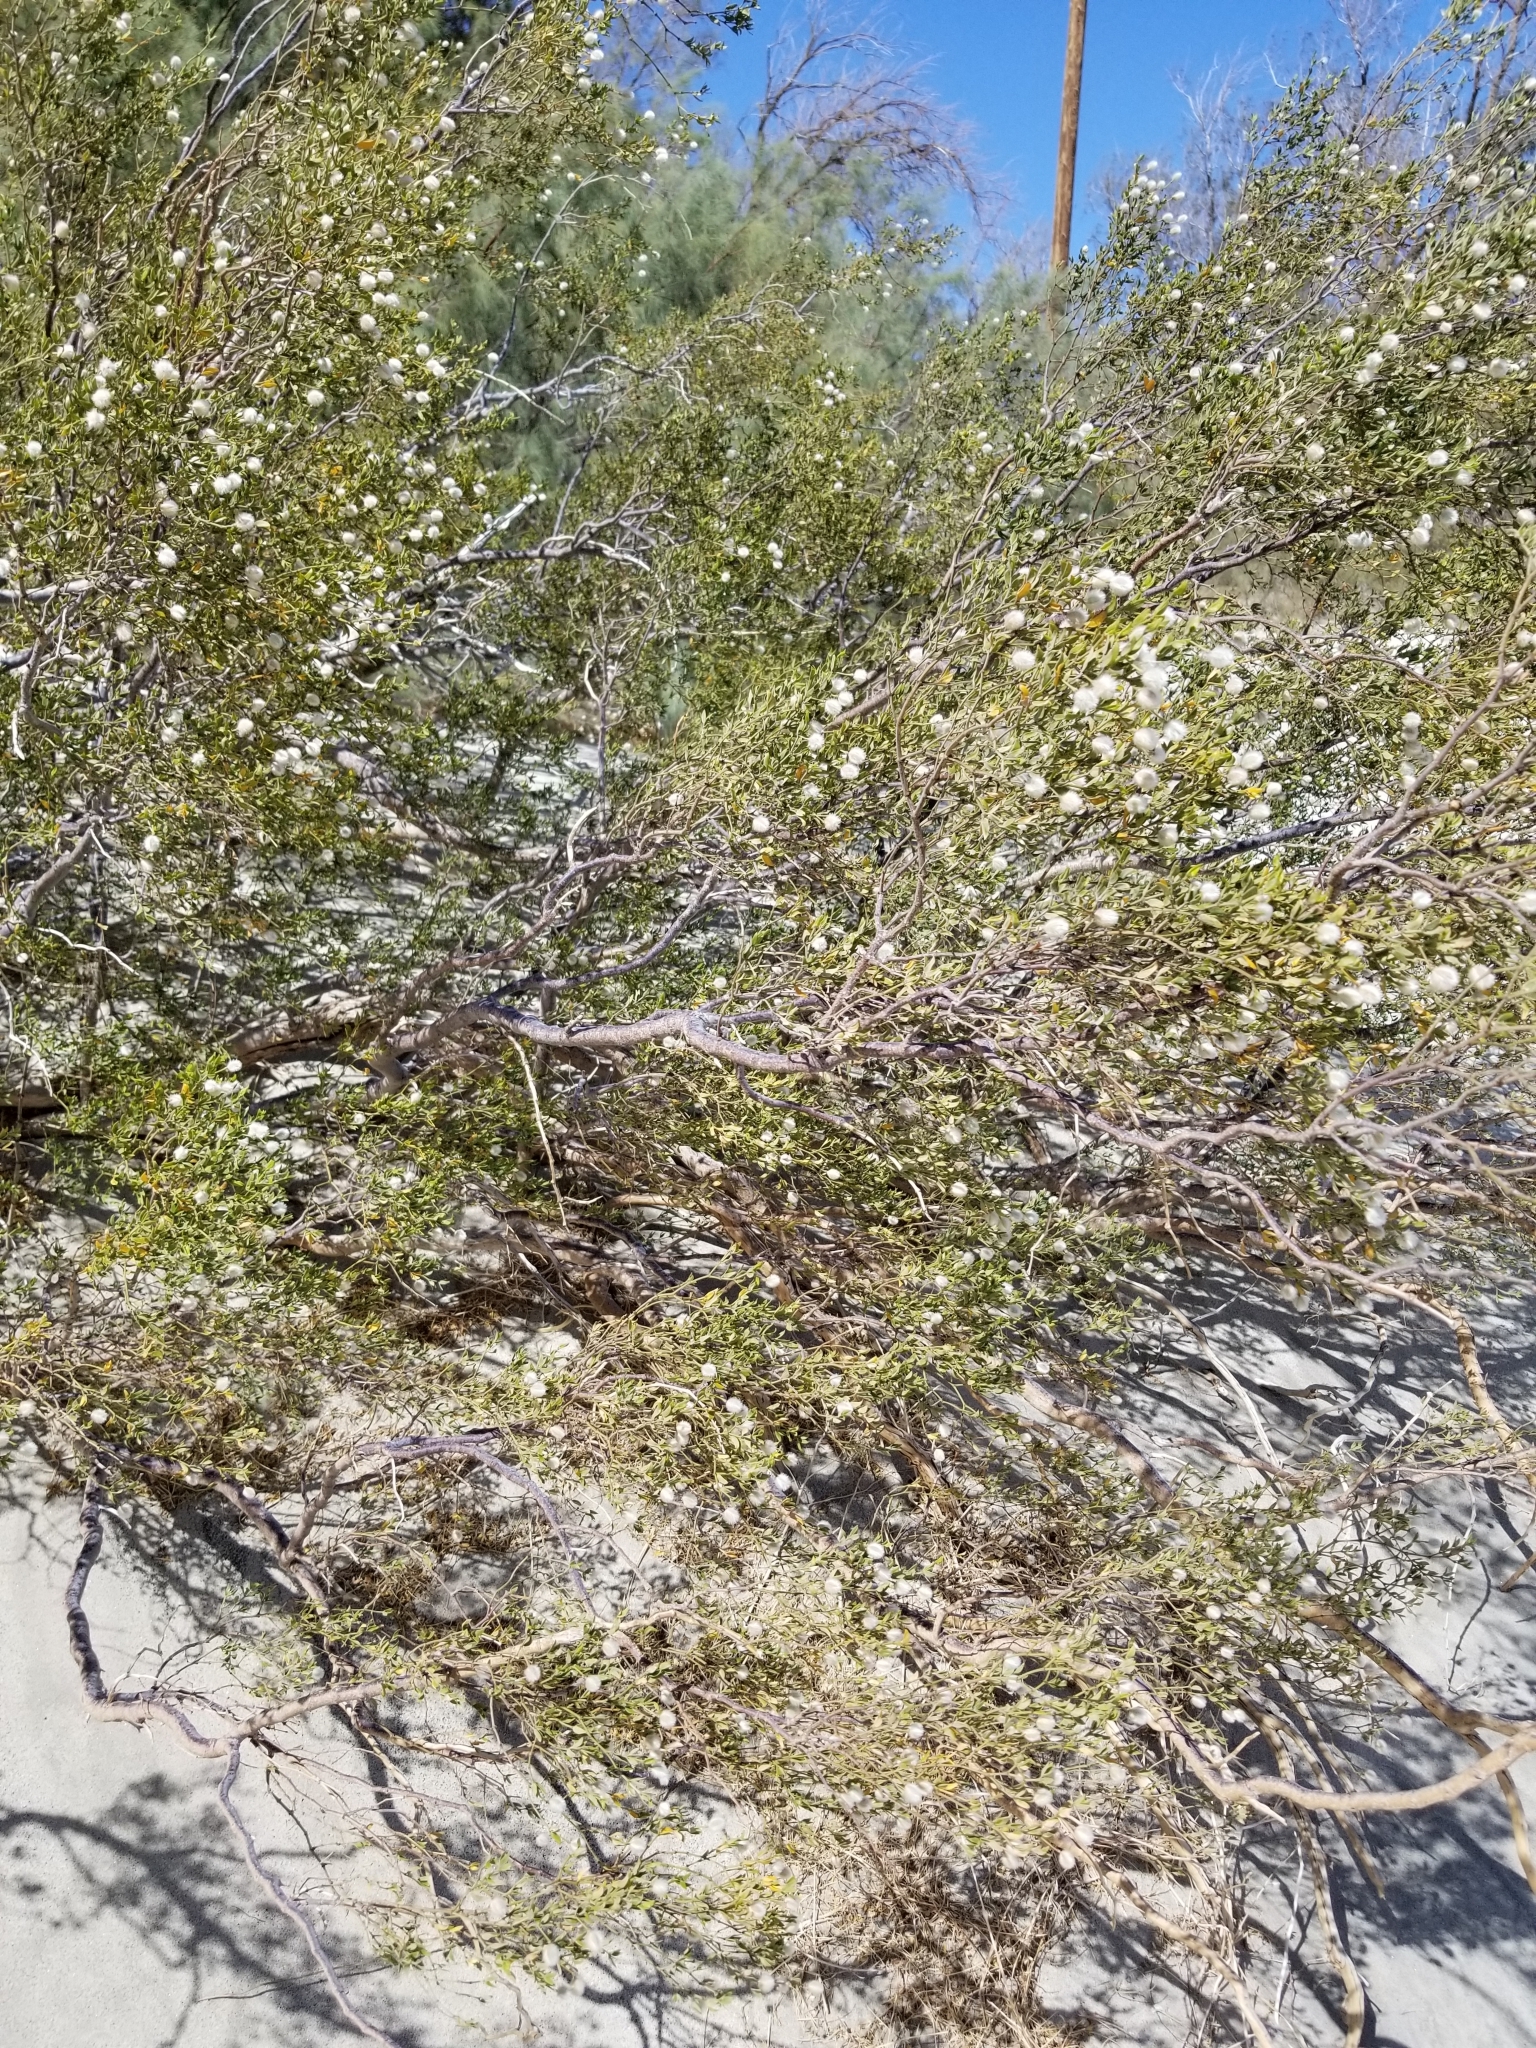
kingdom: Plantae
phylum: Tracheophyta
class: Magnoliopsida
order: Zygophyllales
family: Zygophyllaceae
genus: Larrea
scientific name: Larrea tridentata
